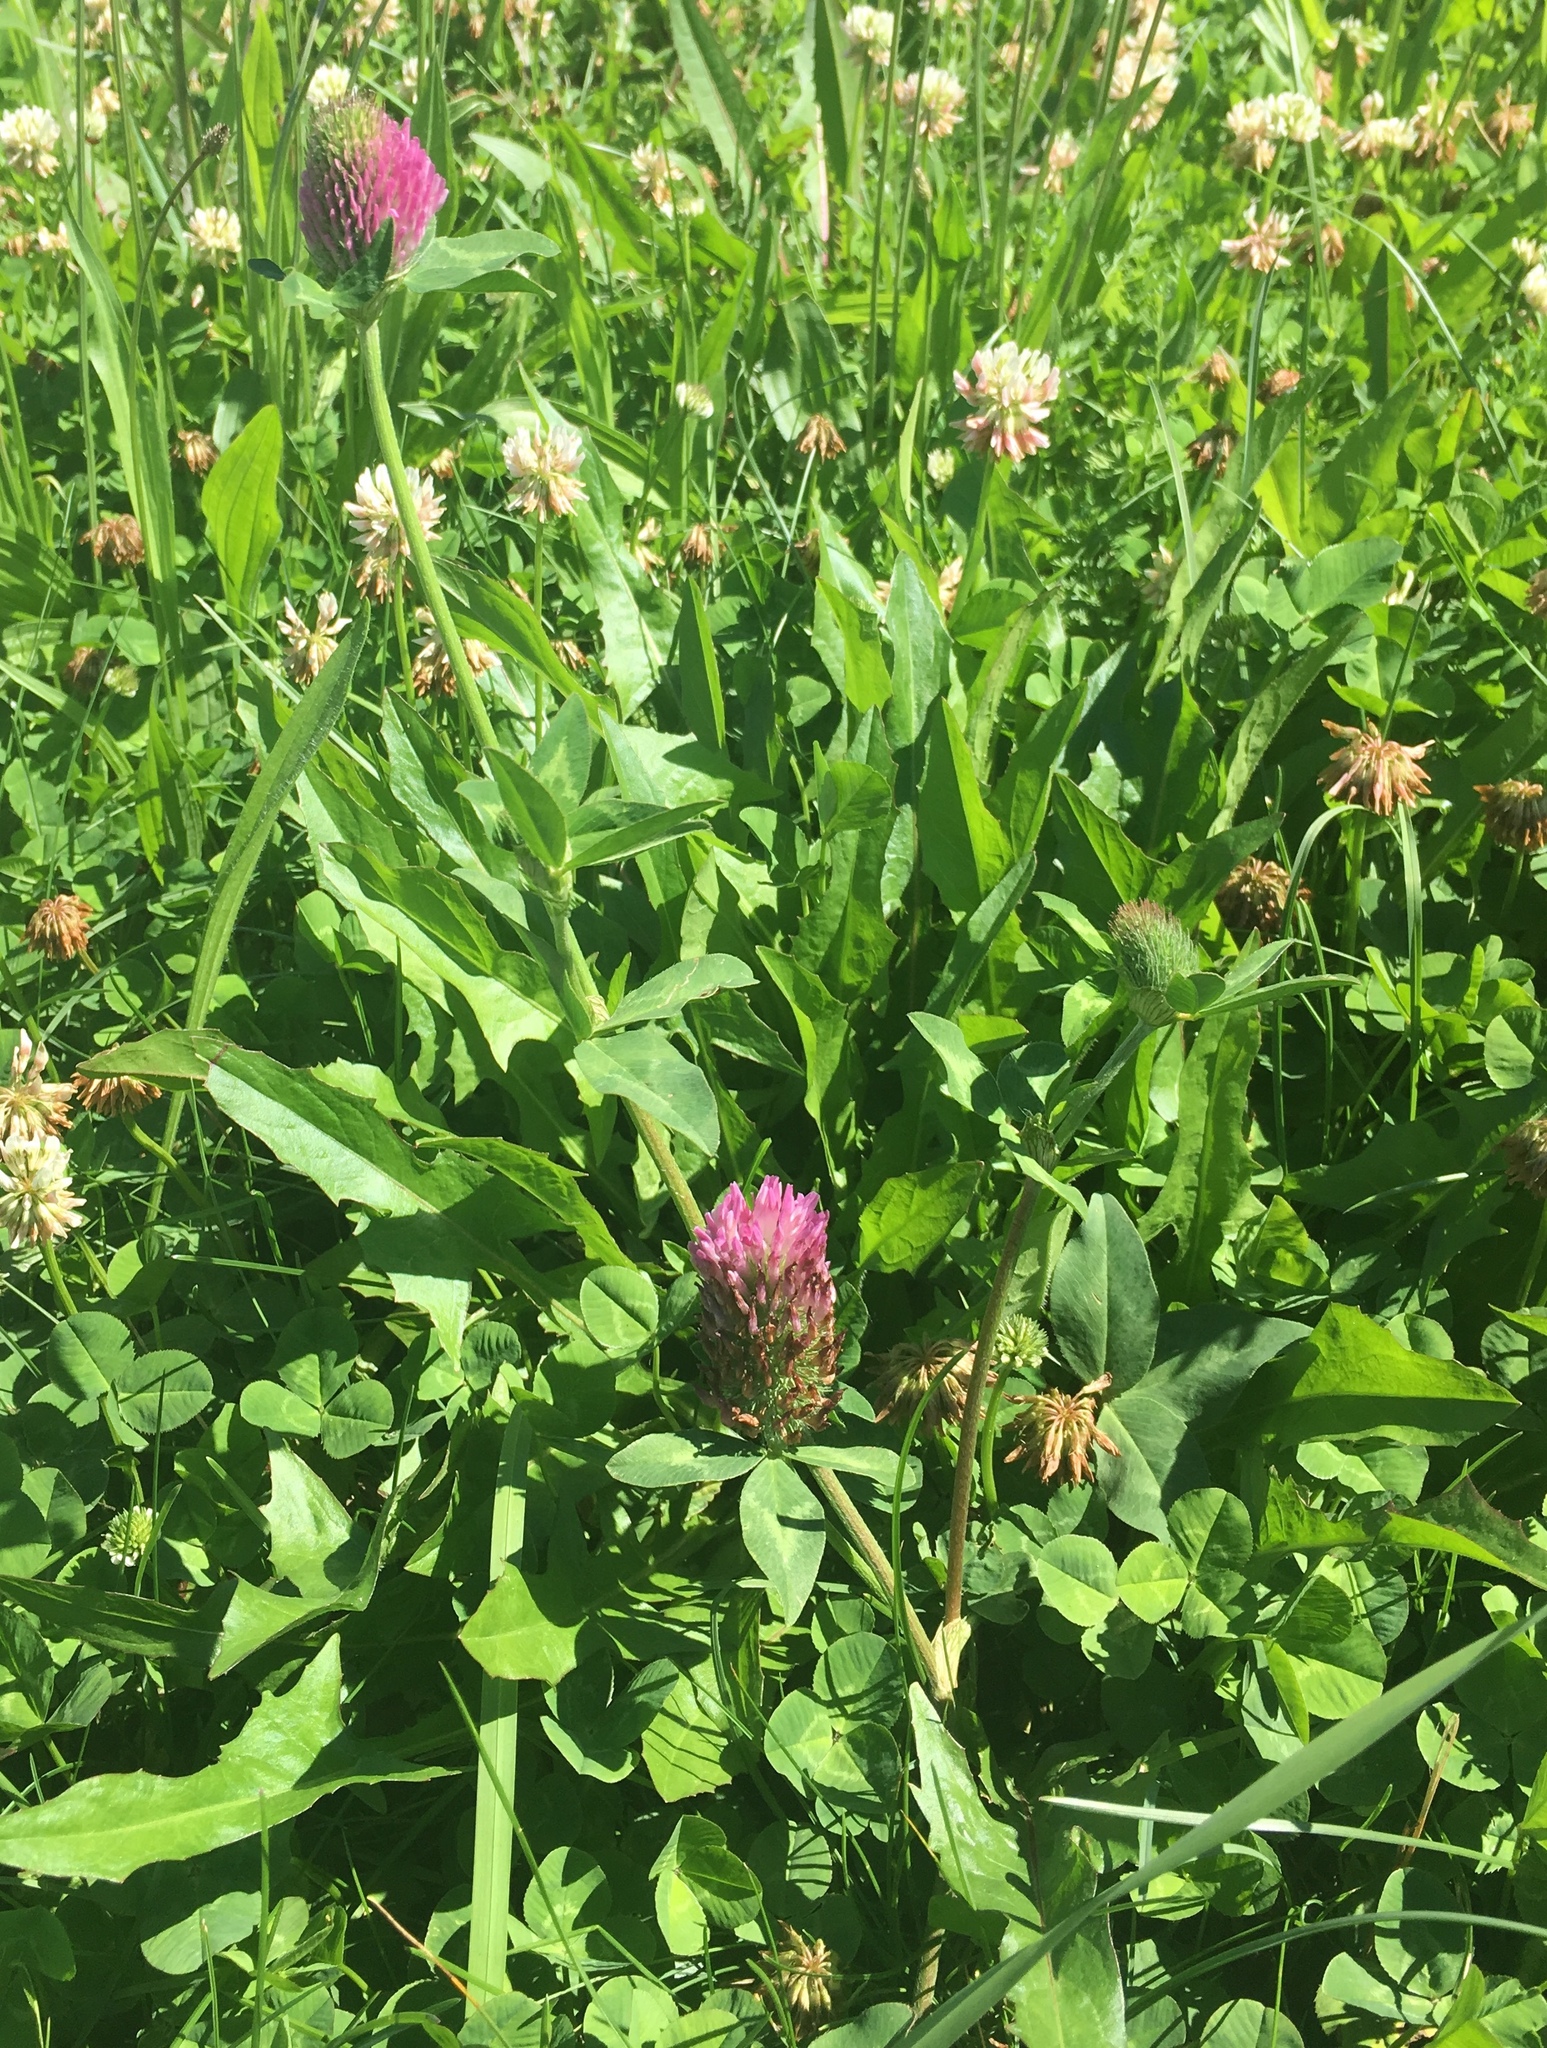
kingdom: Plantae
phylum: Tracheophyta
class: Magnoliopsida
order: Fabales
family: Fabaceae
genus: Trifolium
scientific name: Trifolium pratense
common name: Red clover
